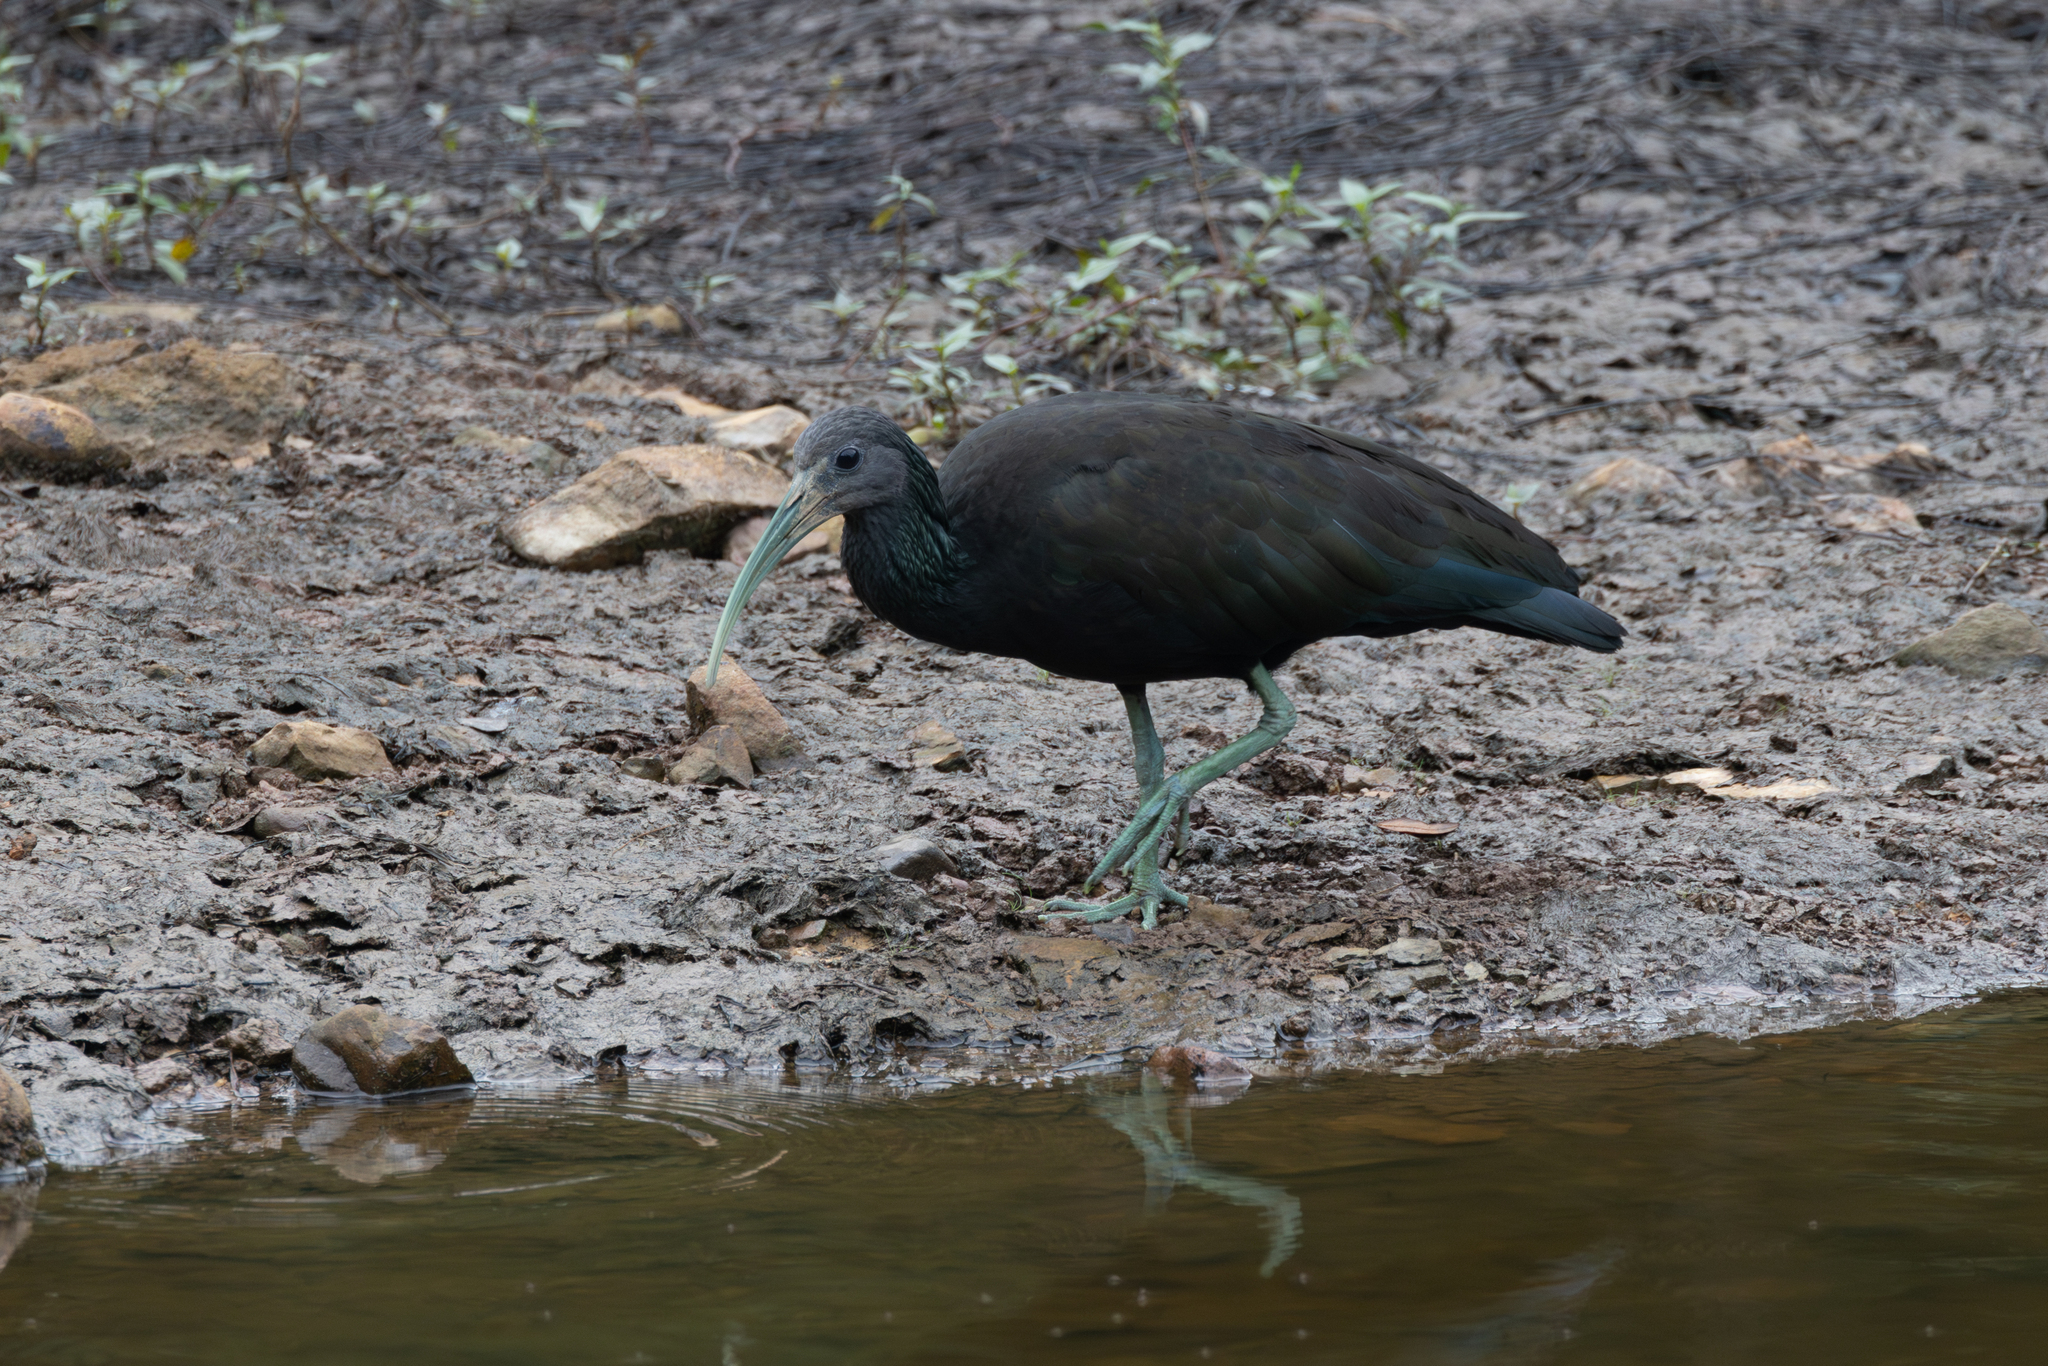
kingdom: Animalia
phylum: Chordata
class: Aves
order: Pelecaniformes
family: Threskiornithidae
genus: Mesembrinibis
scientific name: Mesembrinibis cayennensis
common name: Green ibis
